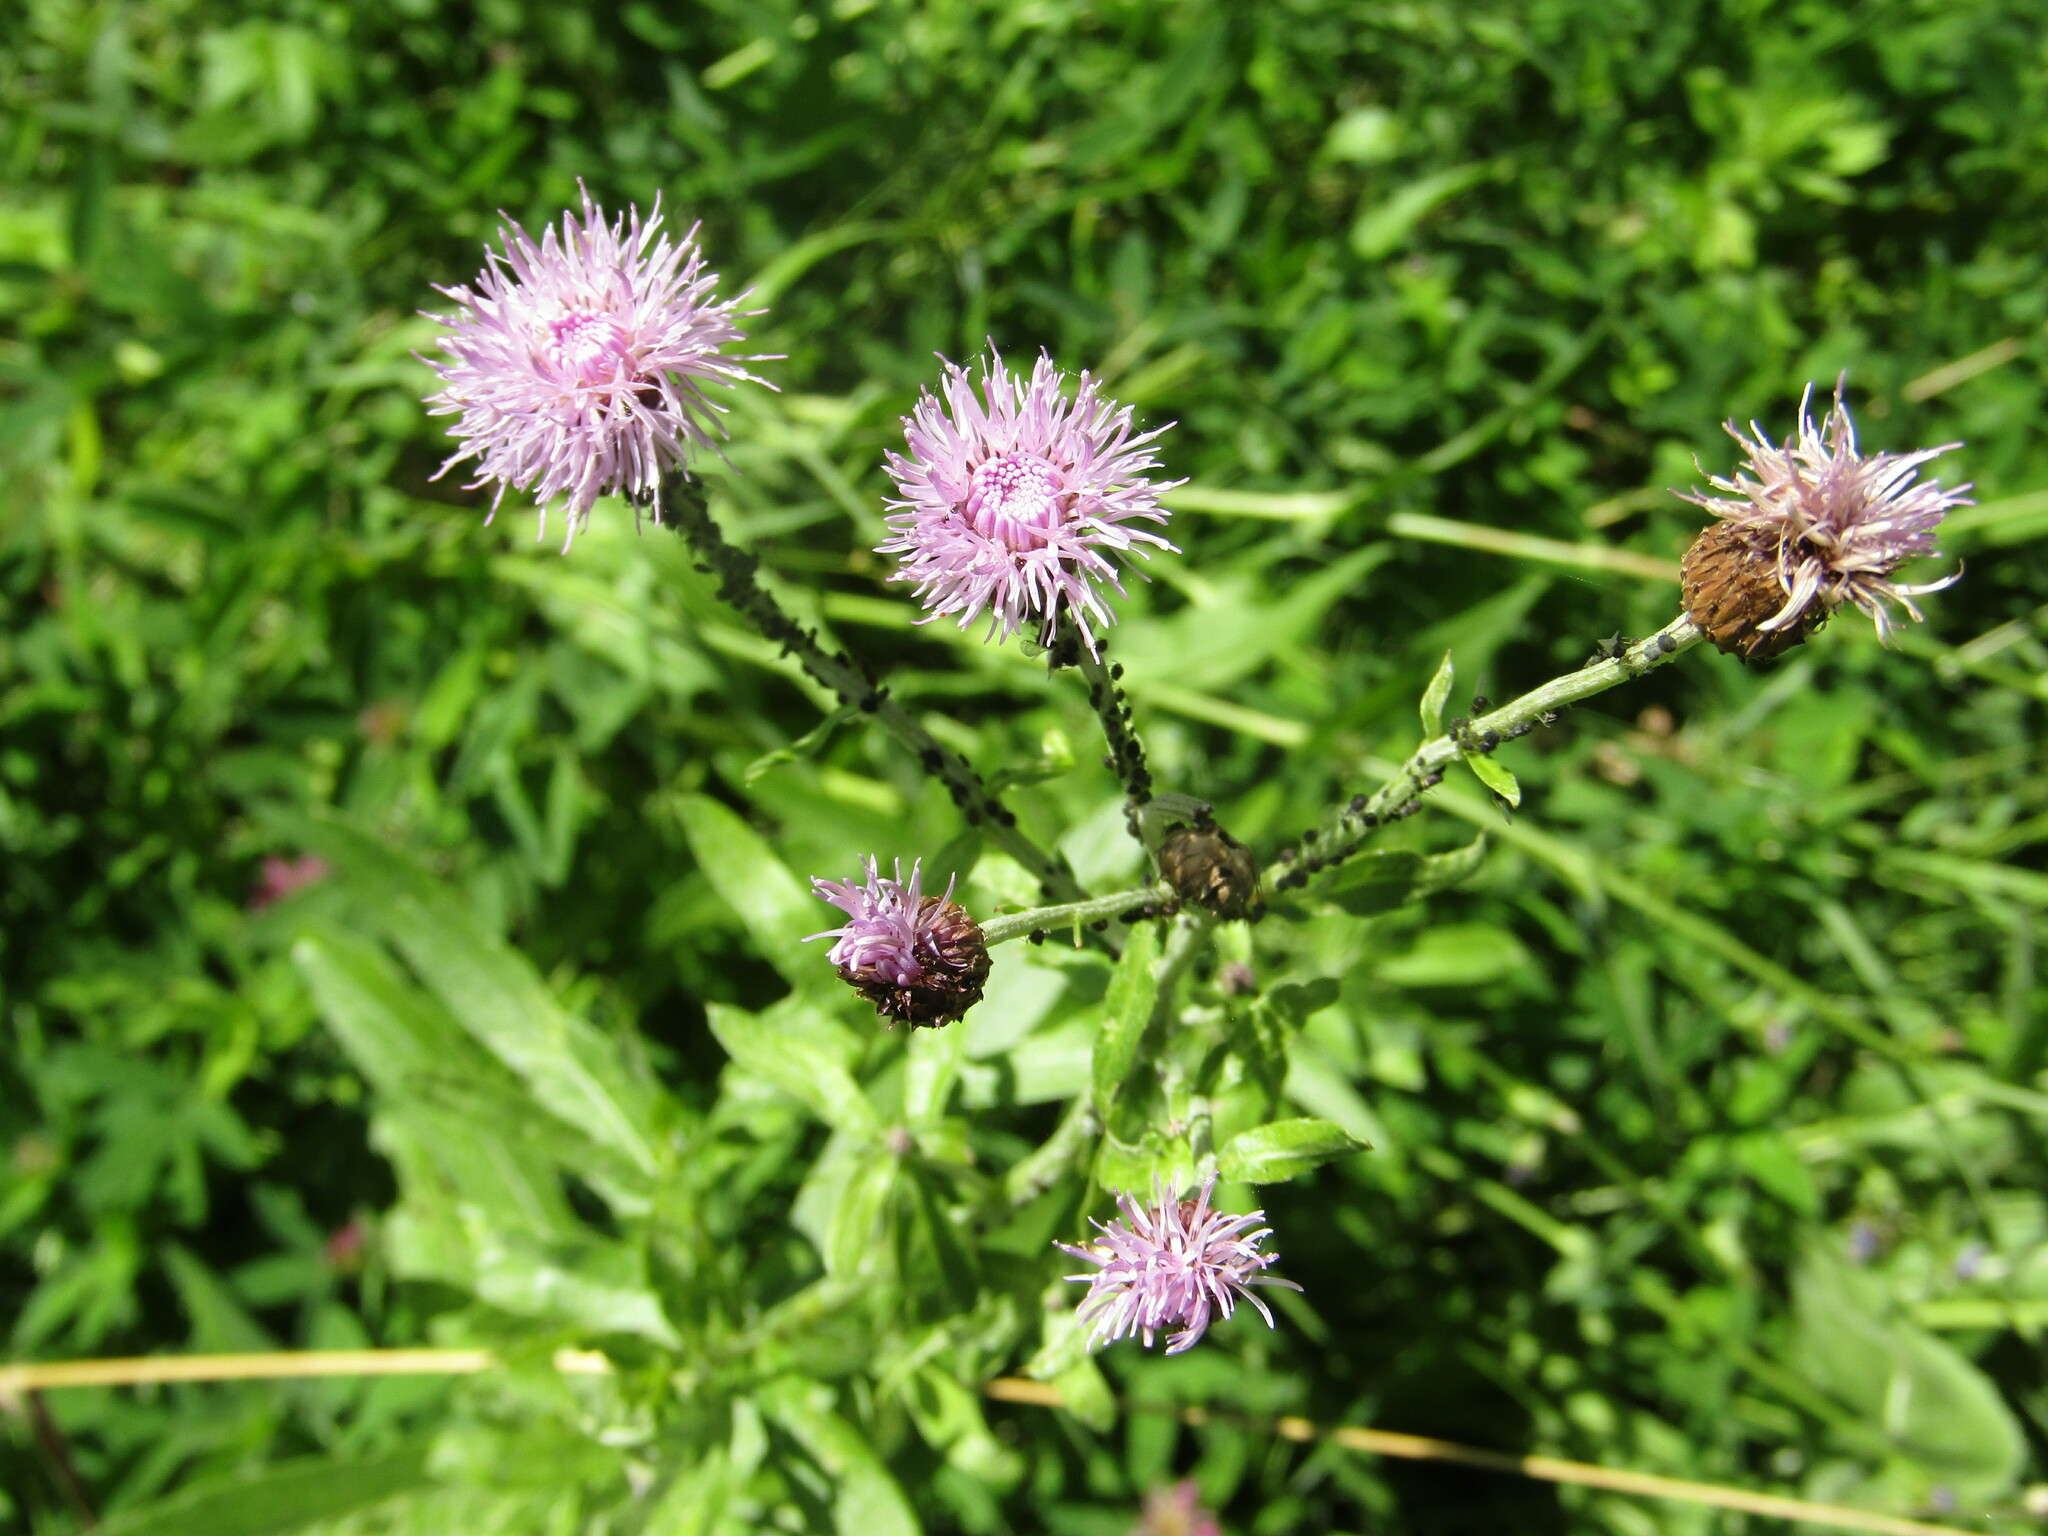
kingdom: Plantae
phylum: Tracheophyta
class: Magnoliopsida
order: Asterales
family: Asteraceae
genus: Cirsium
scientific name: Cirsium arvense
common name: Creeping thistle
